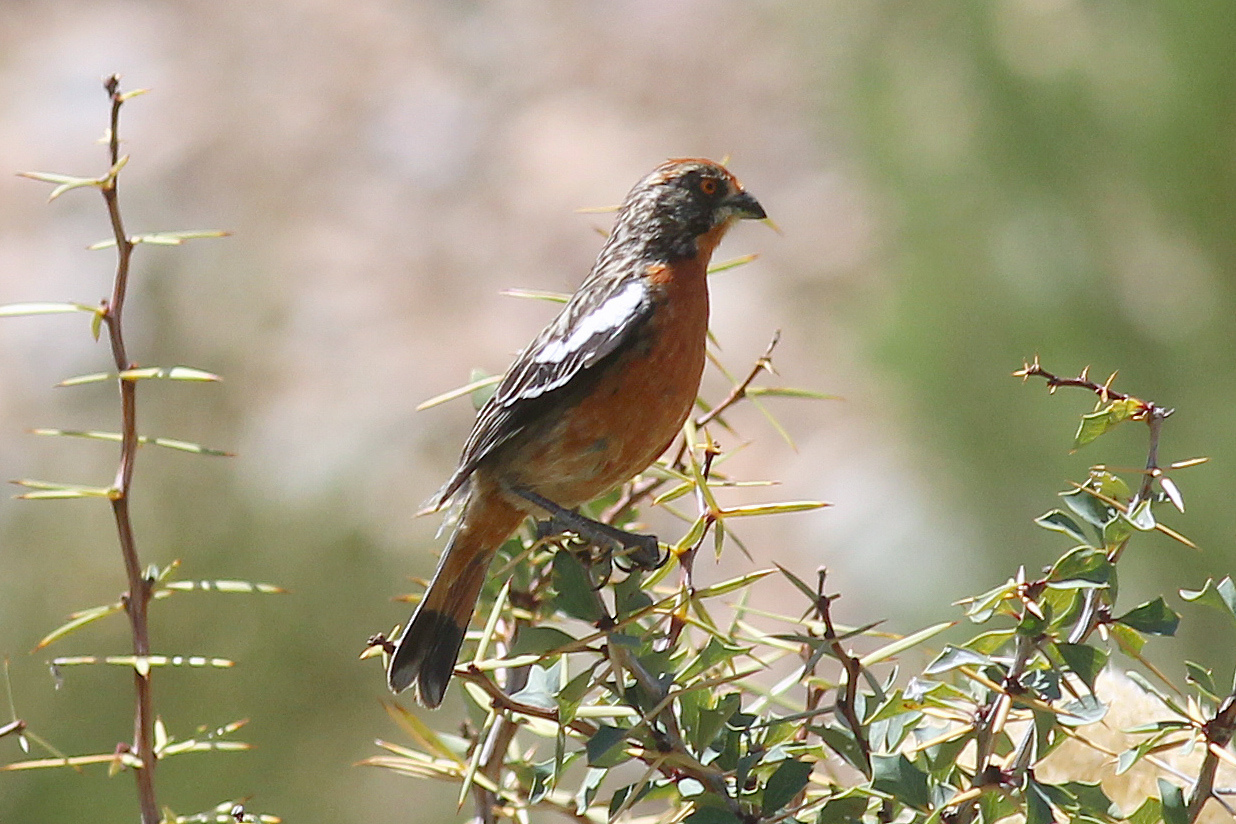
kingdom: Animalia
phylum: Chordata
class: Aves
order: Passeriformes
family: Cotingidae
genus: Phytotoma
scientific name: Phytotoma rara
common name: Rufous-tailed plantcutter
